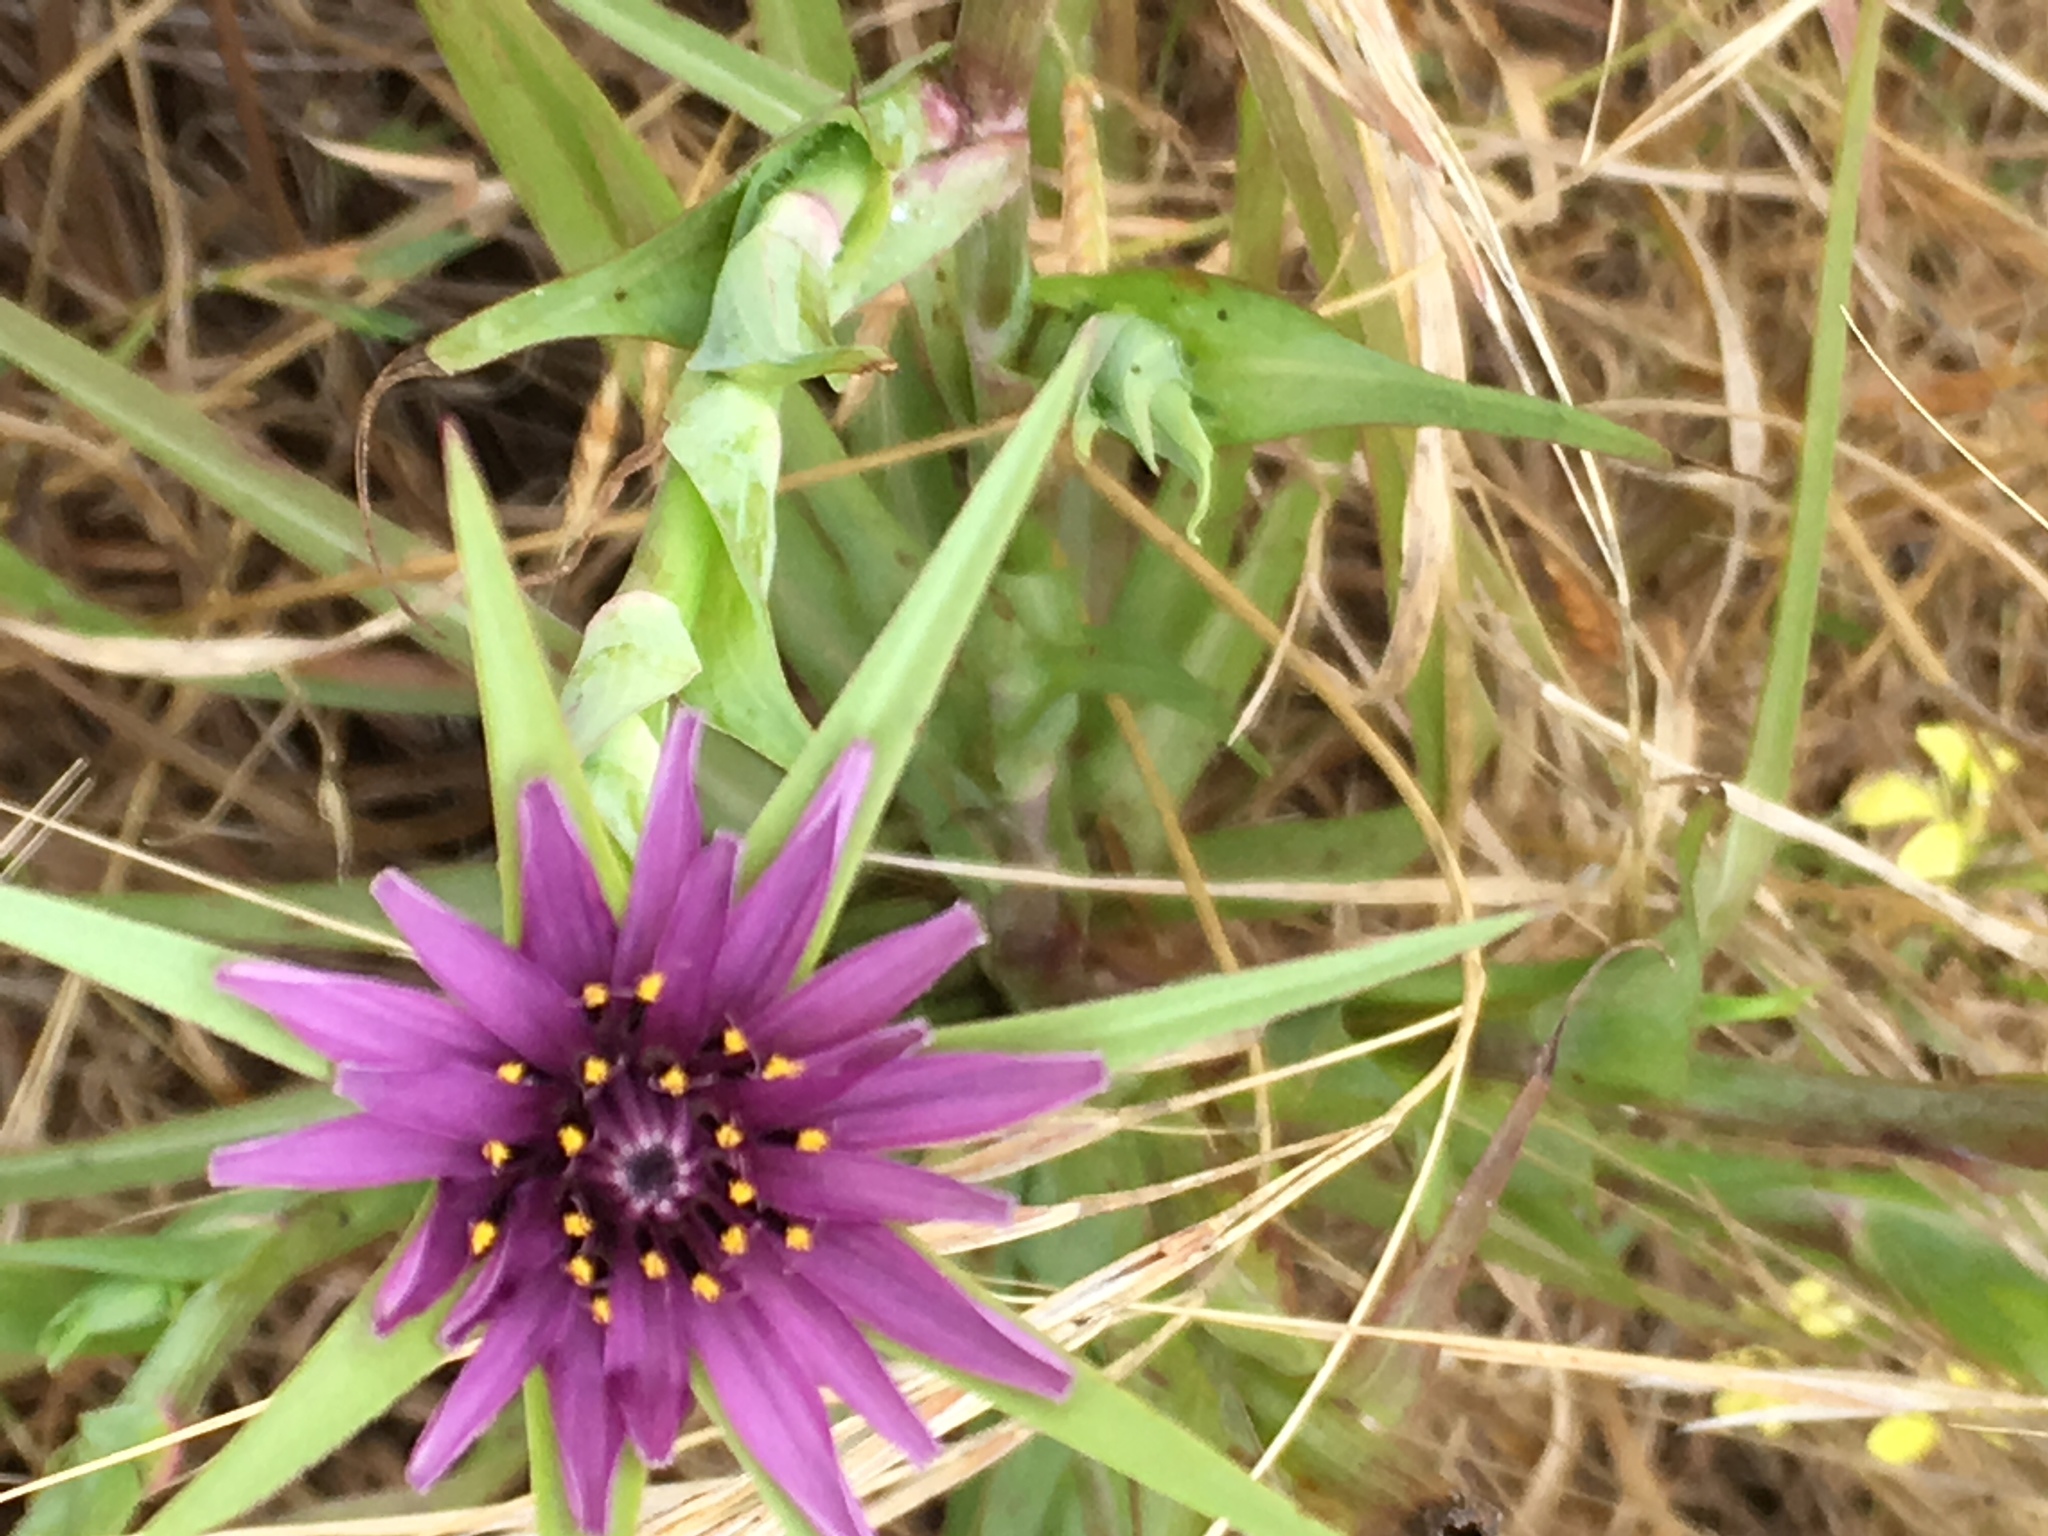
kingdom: Plantae
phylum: Tracheophyta
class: Magnoliopsida
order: Asterales
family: Asteraceae
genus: Tragopogon
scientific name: Tragopogon porrifolius
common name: Salsify
